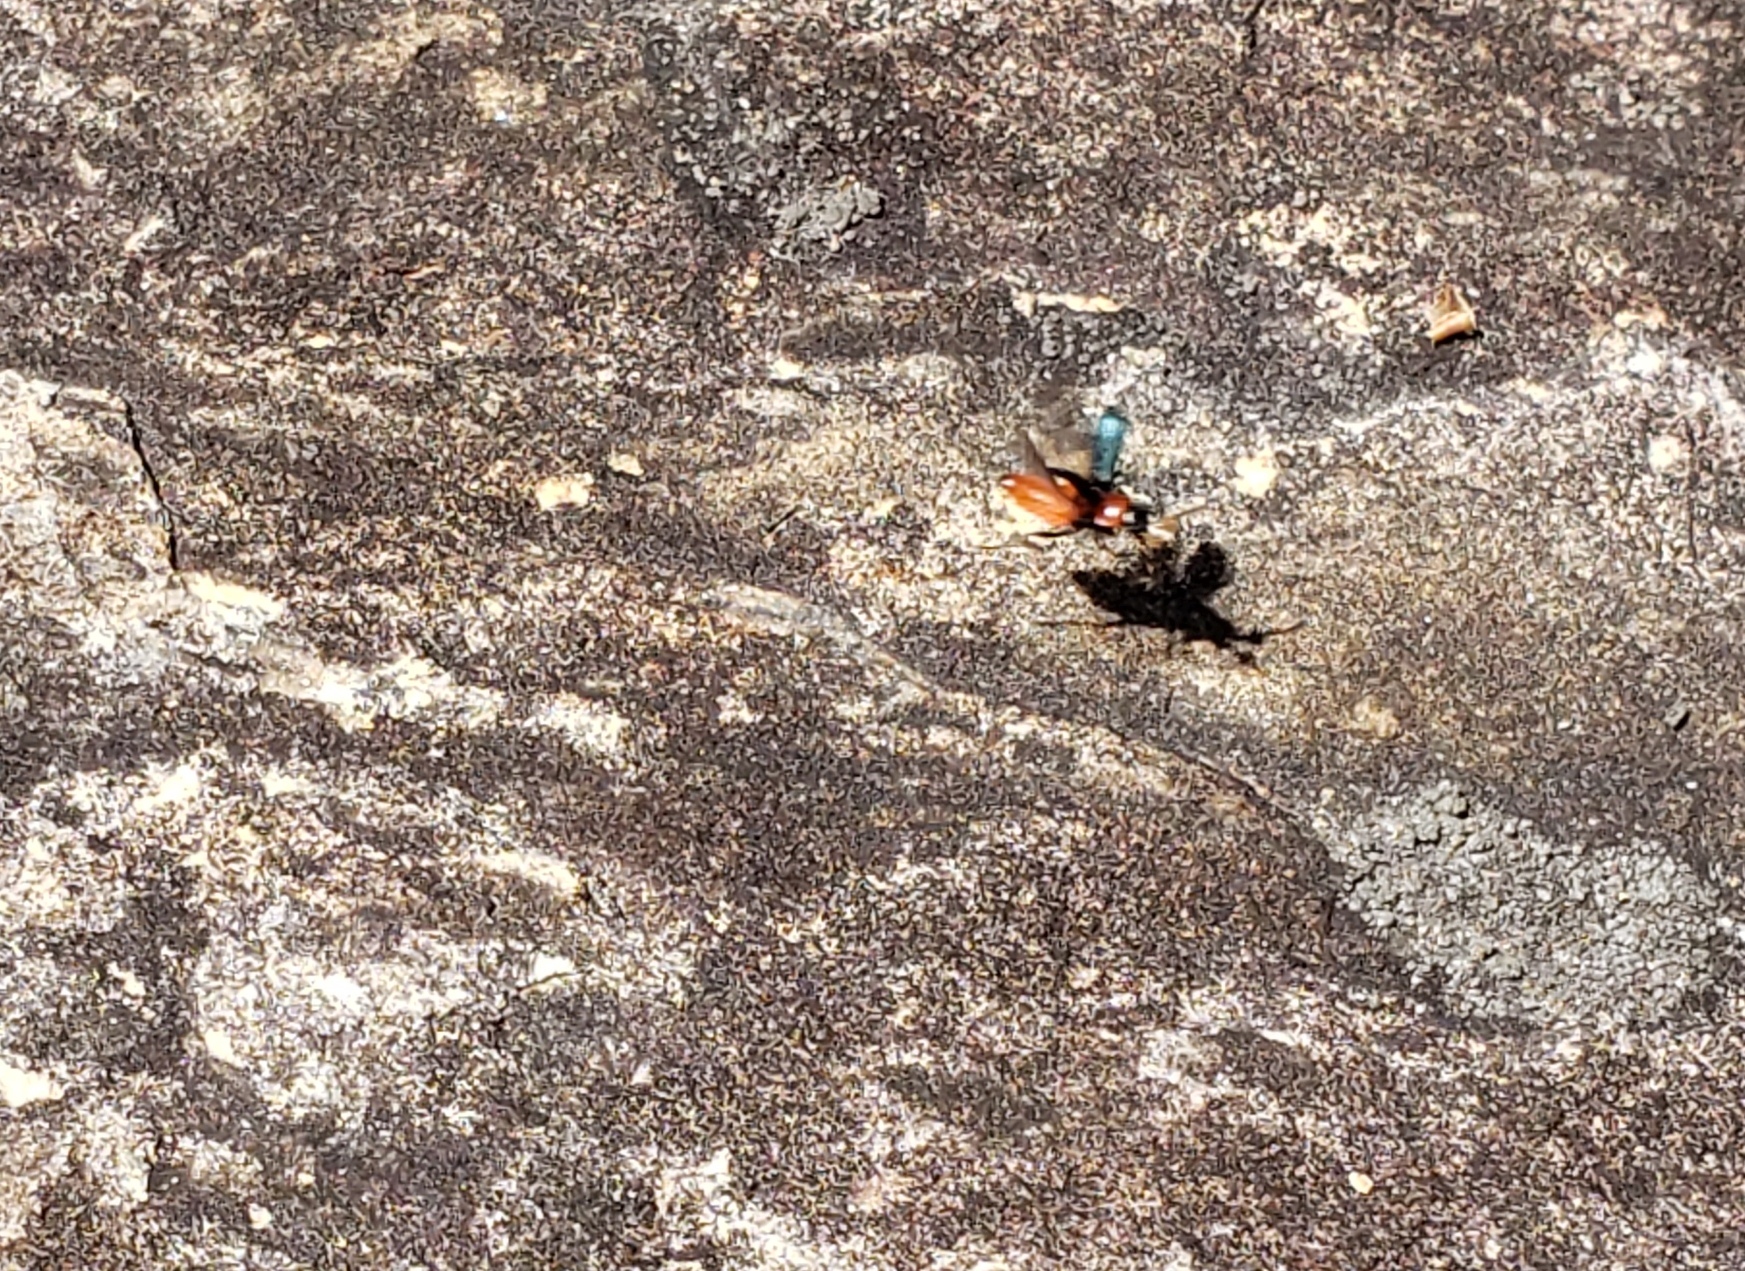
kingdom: Animalia
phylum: Arthropoda
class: Insecta
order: Coleoptera
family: Melyridae
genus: Collops
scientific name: Collops tricolor
